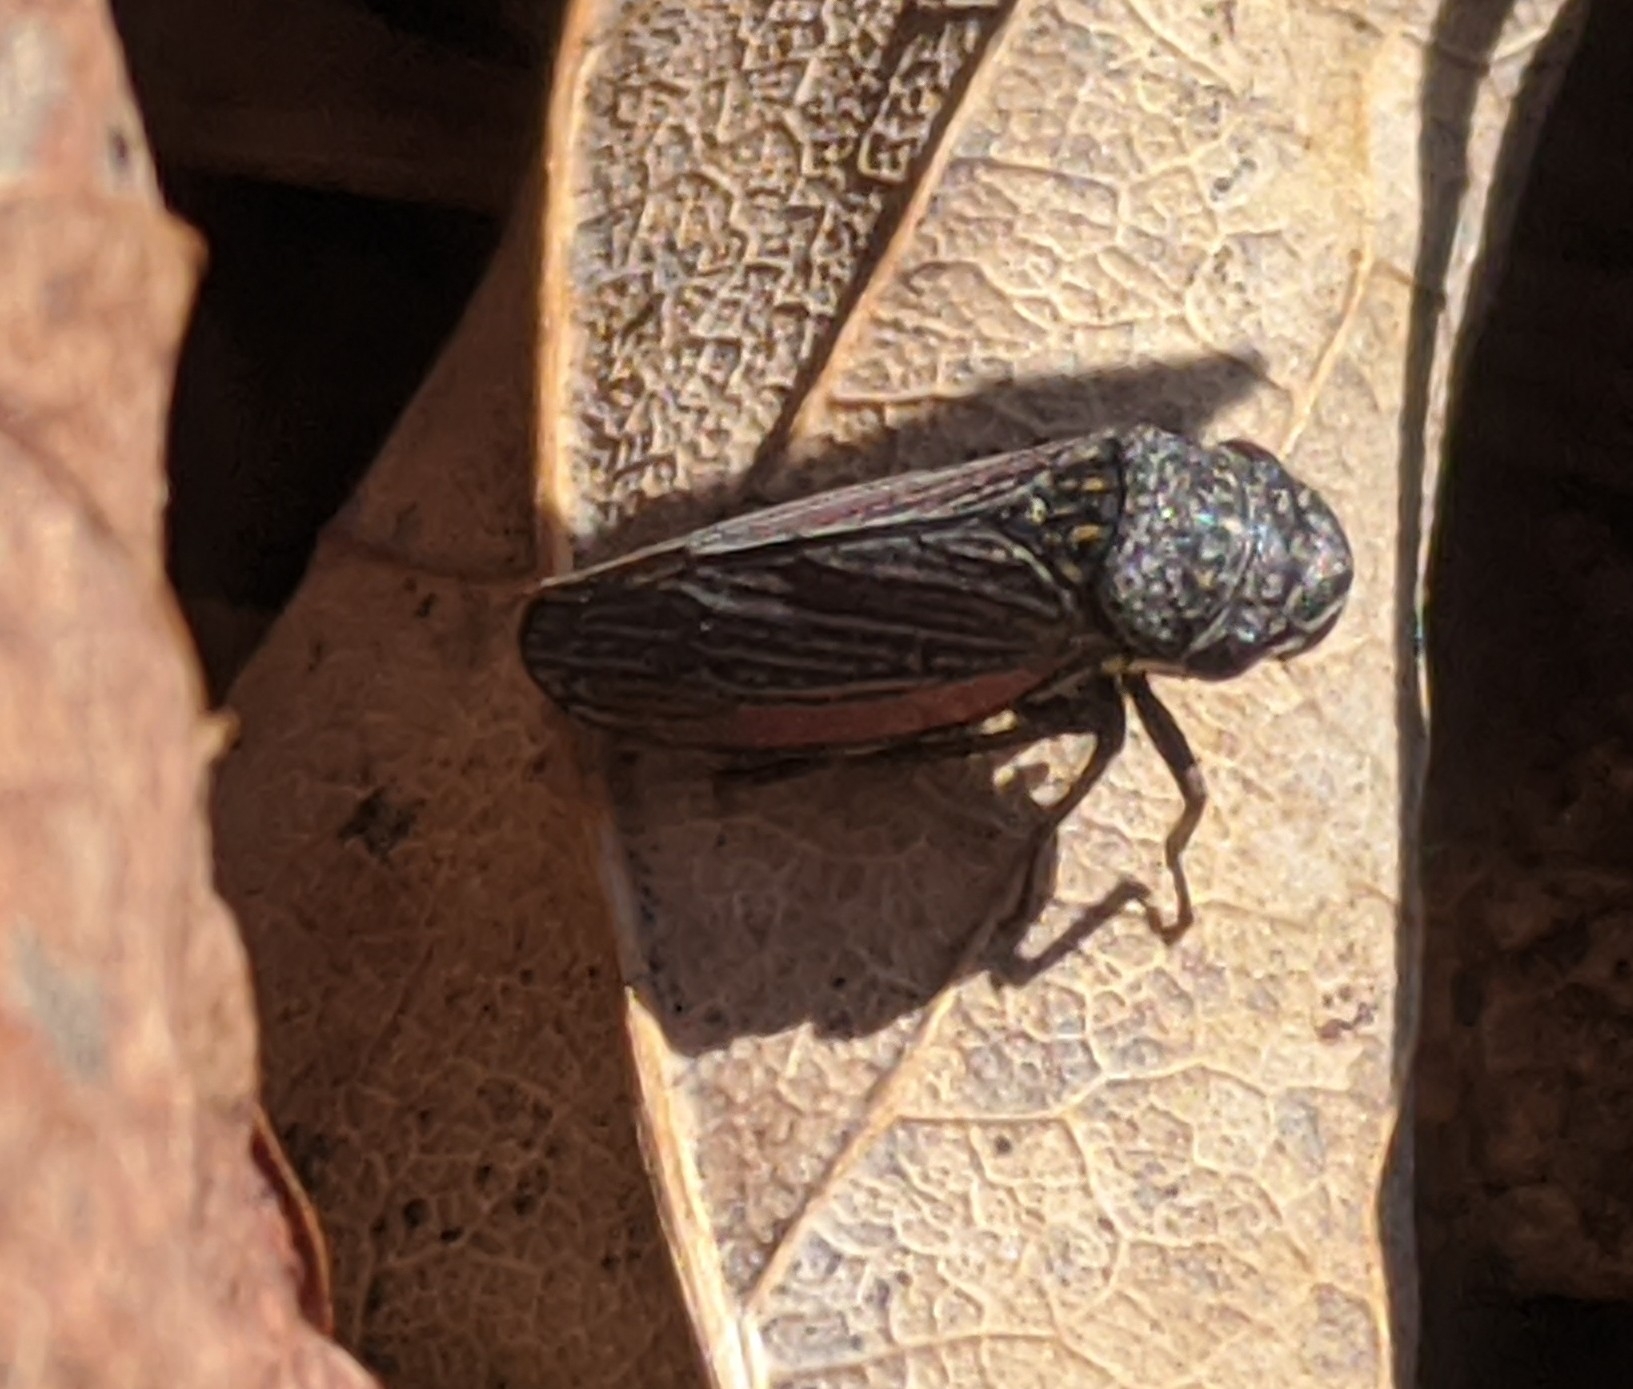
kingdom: Animalia
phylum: Arthropoda
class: Insecta
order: Hemiptera
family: Cicadellidae
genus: Cuerna
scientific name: Cuerna striata
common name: Striped leafhopper
